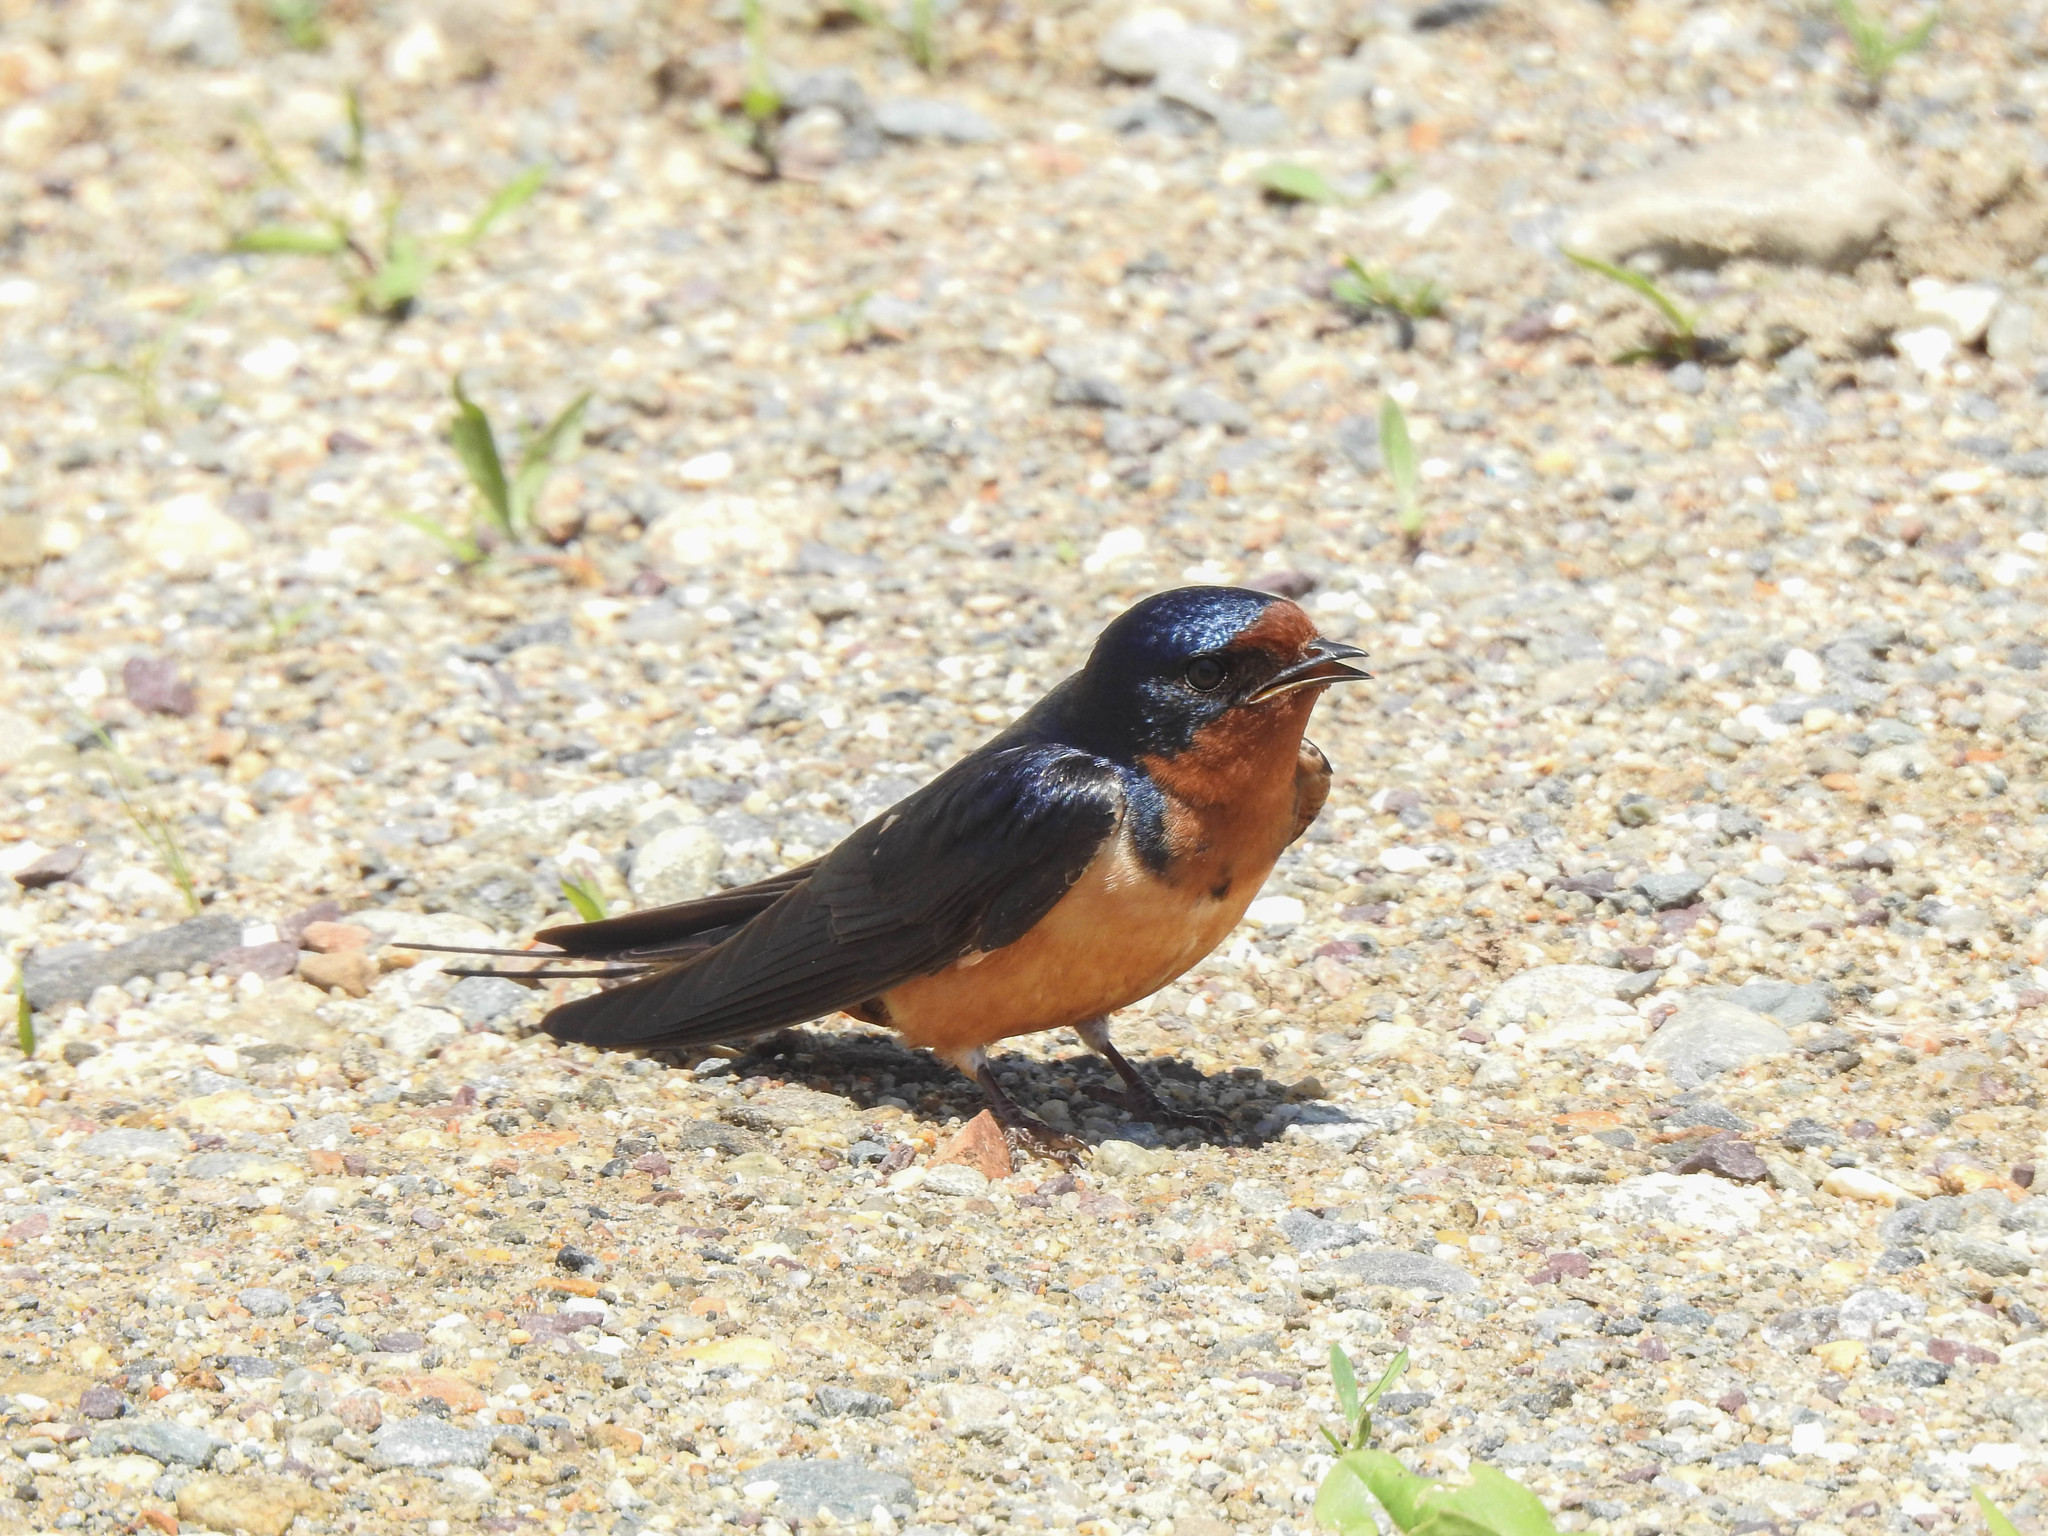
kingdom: Animalia
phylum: Chordata
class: Aves
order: Passeriformes
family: Hirundinidae
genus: Hirundo
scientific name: Hirundo rustica
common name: Barn swallow
